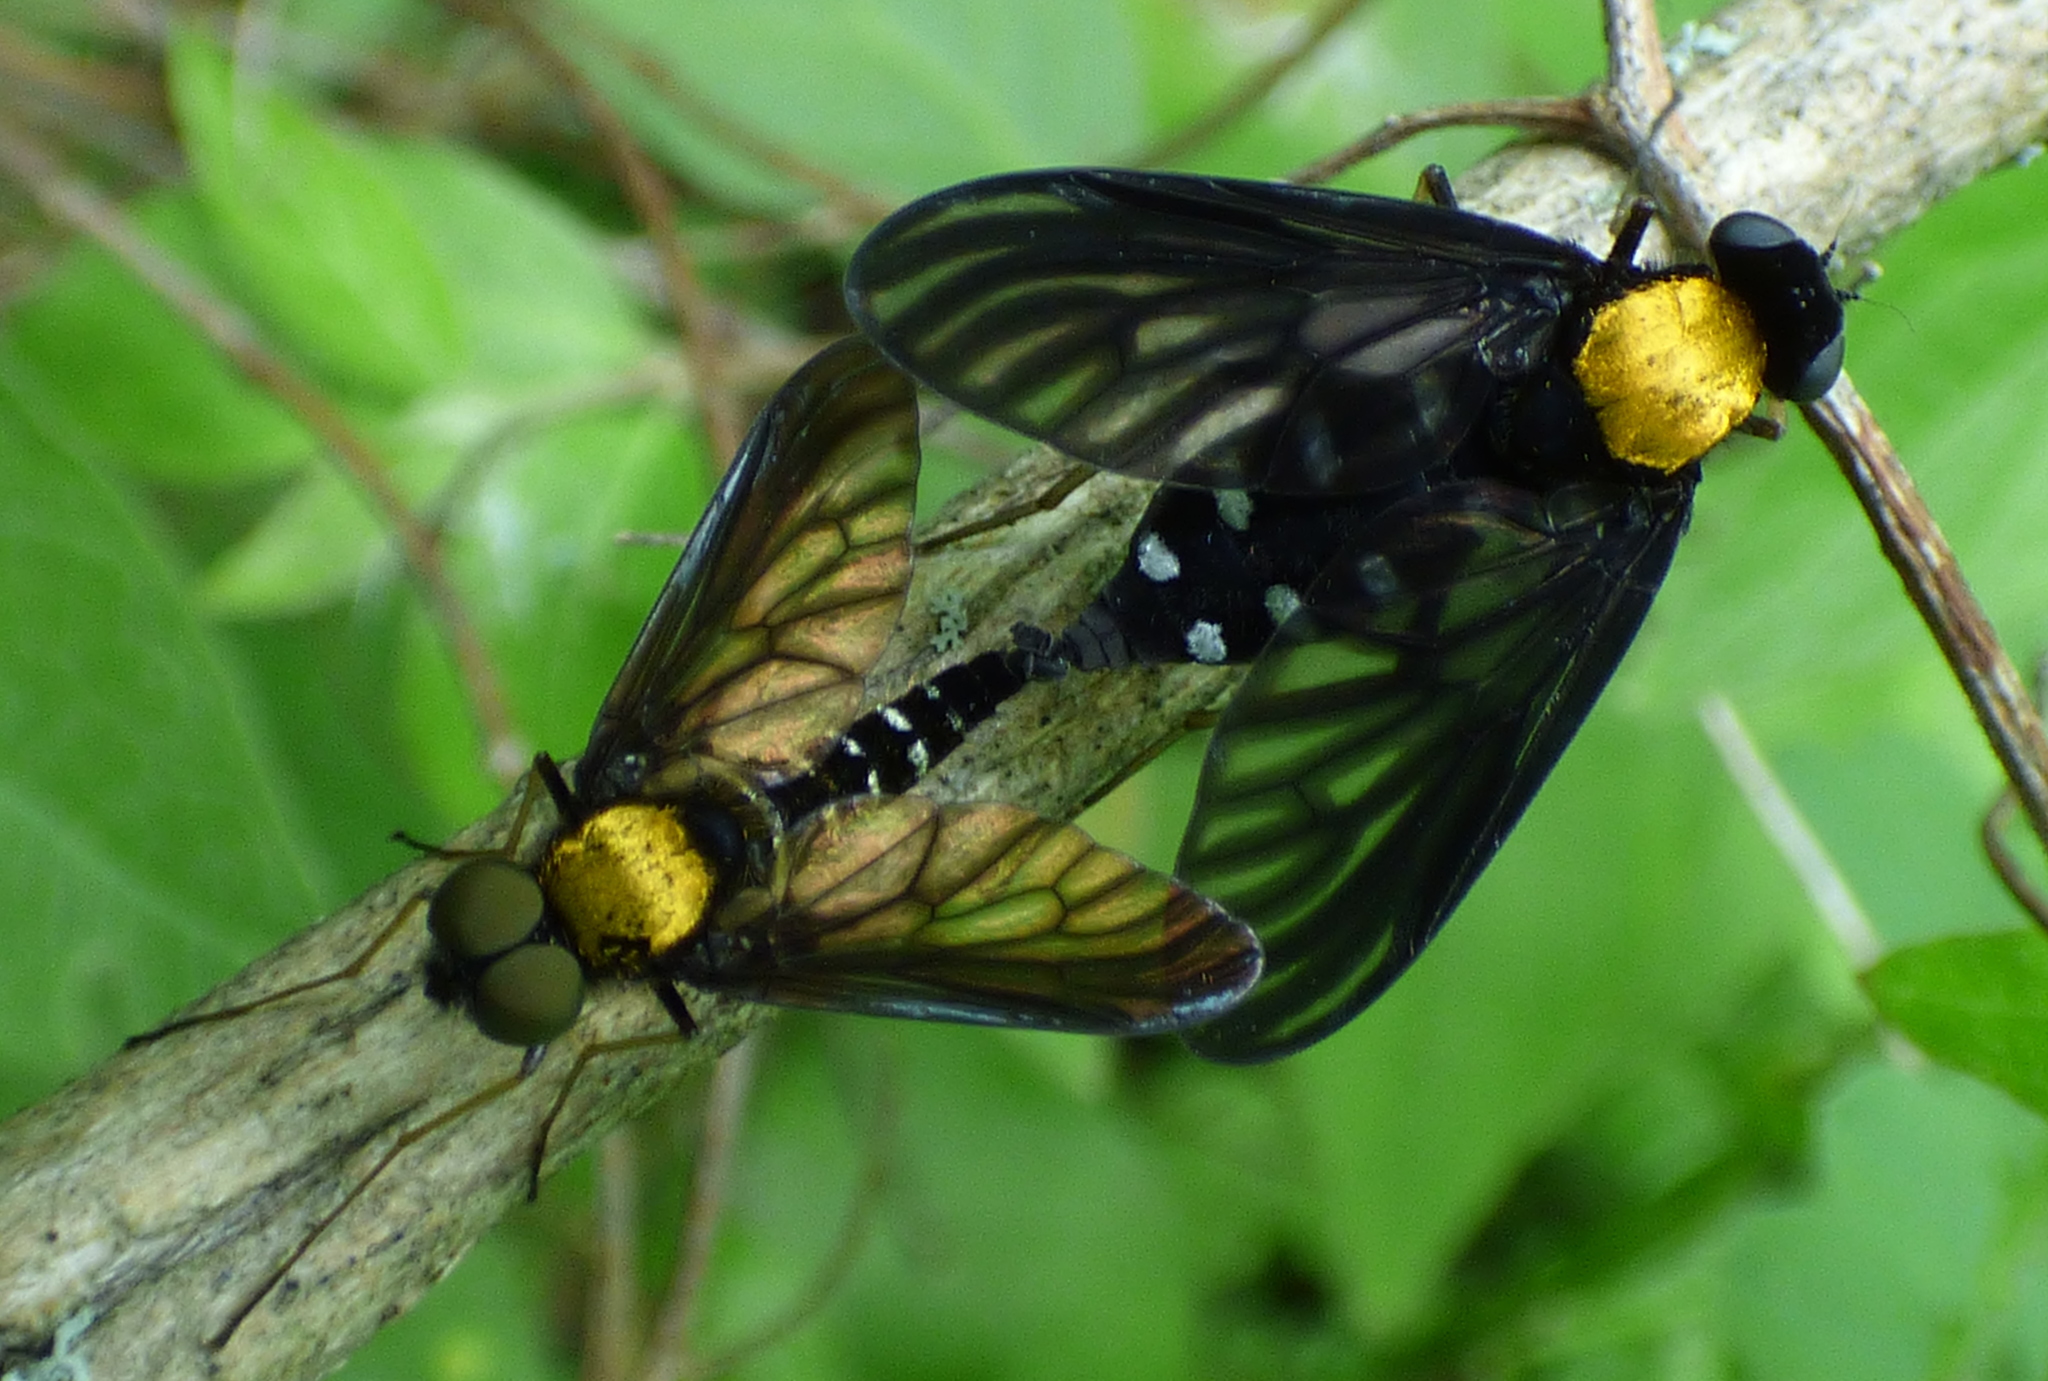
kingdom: Animalia
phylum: Arthropoda
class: Insecta
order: Diptera
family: Rhagionidae
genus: Chrysopilus
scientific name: Chrysopilus thoracicus
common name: Golden-backed snipe fly
